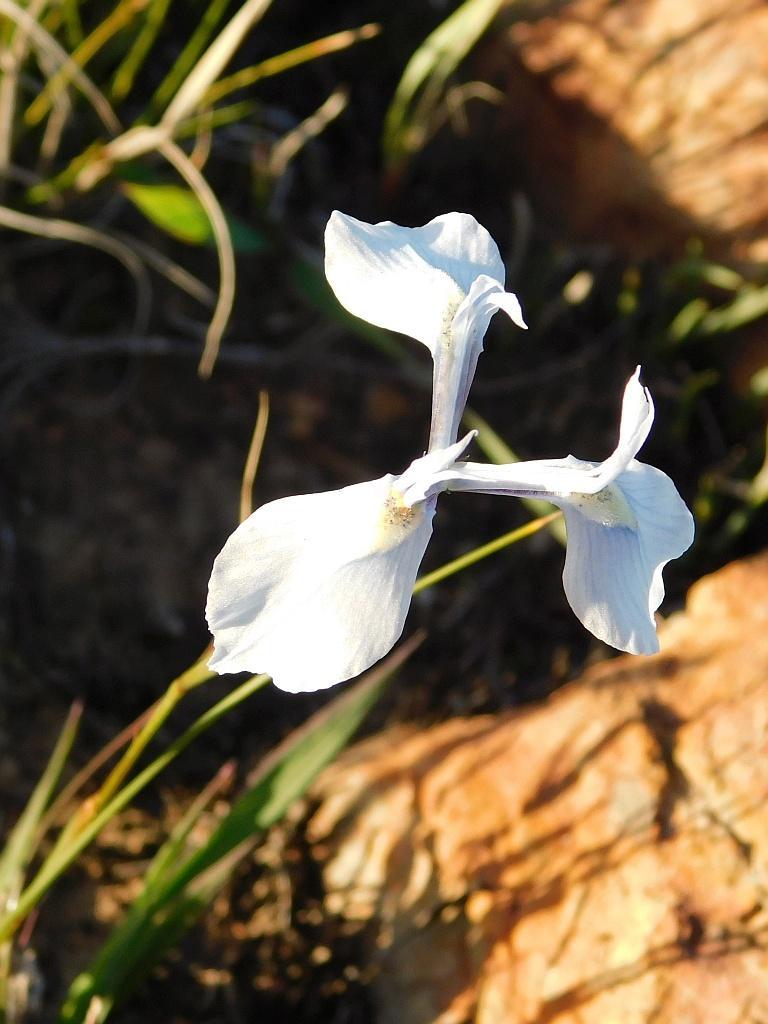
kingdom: Plantae
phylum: Tracheophyta
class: Liliopsida
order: Asparagales
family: Iridaceae
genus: Moraea
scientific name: Moraea tripetala
